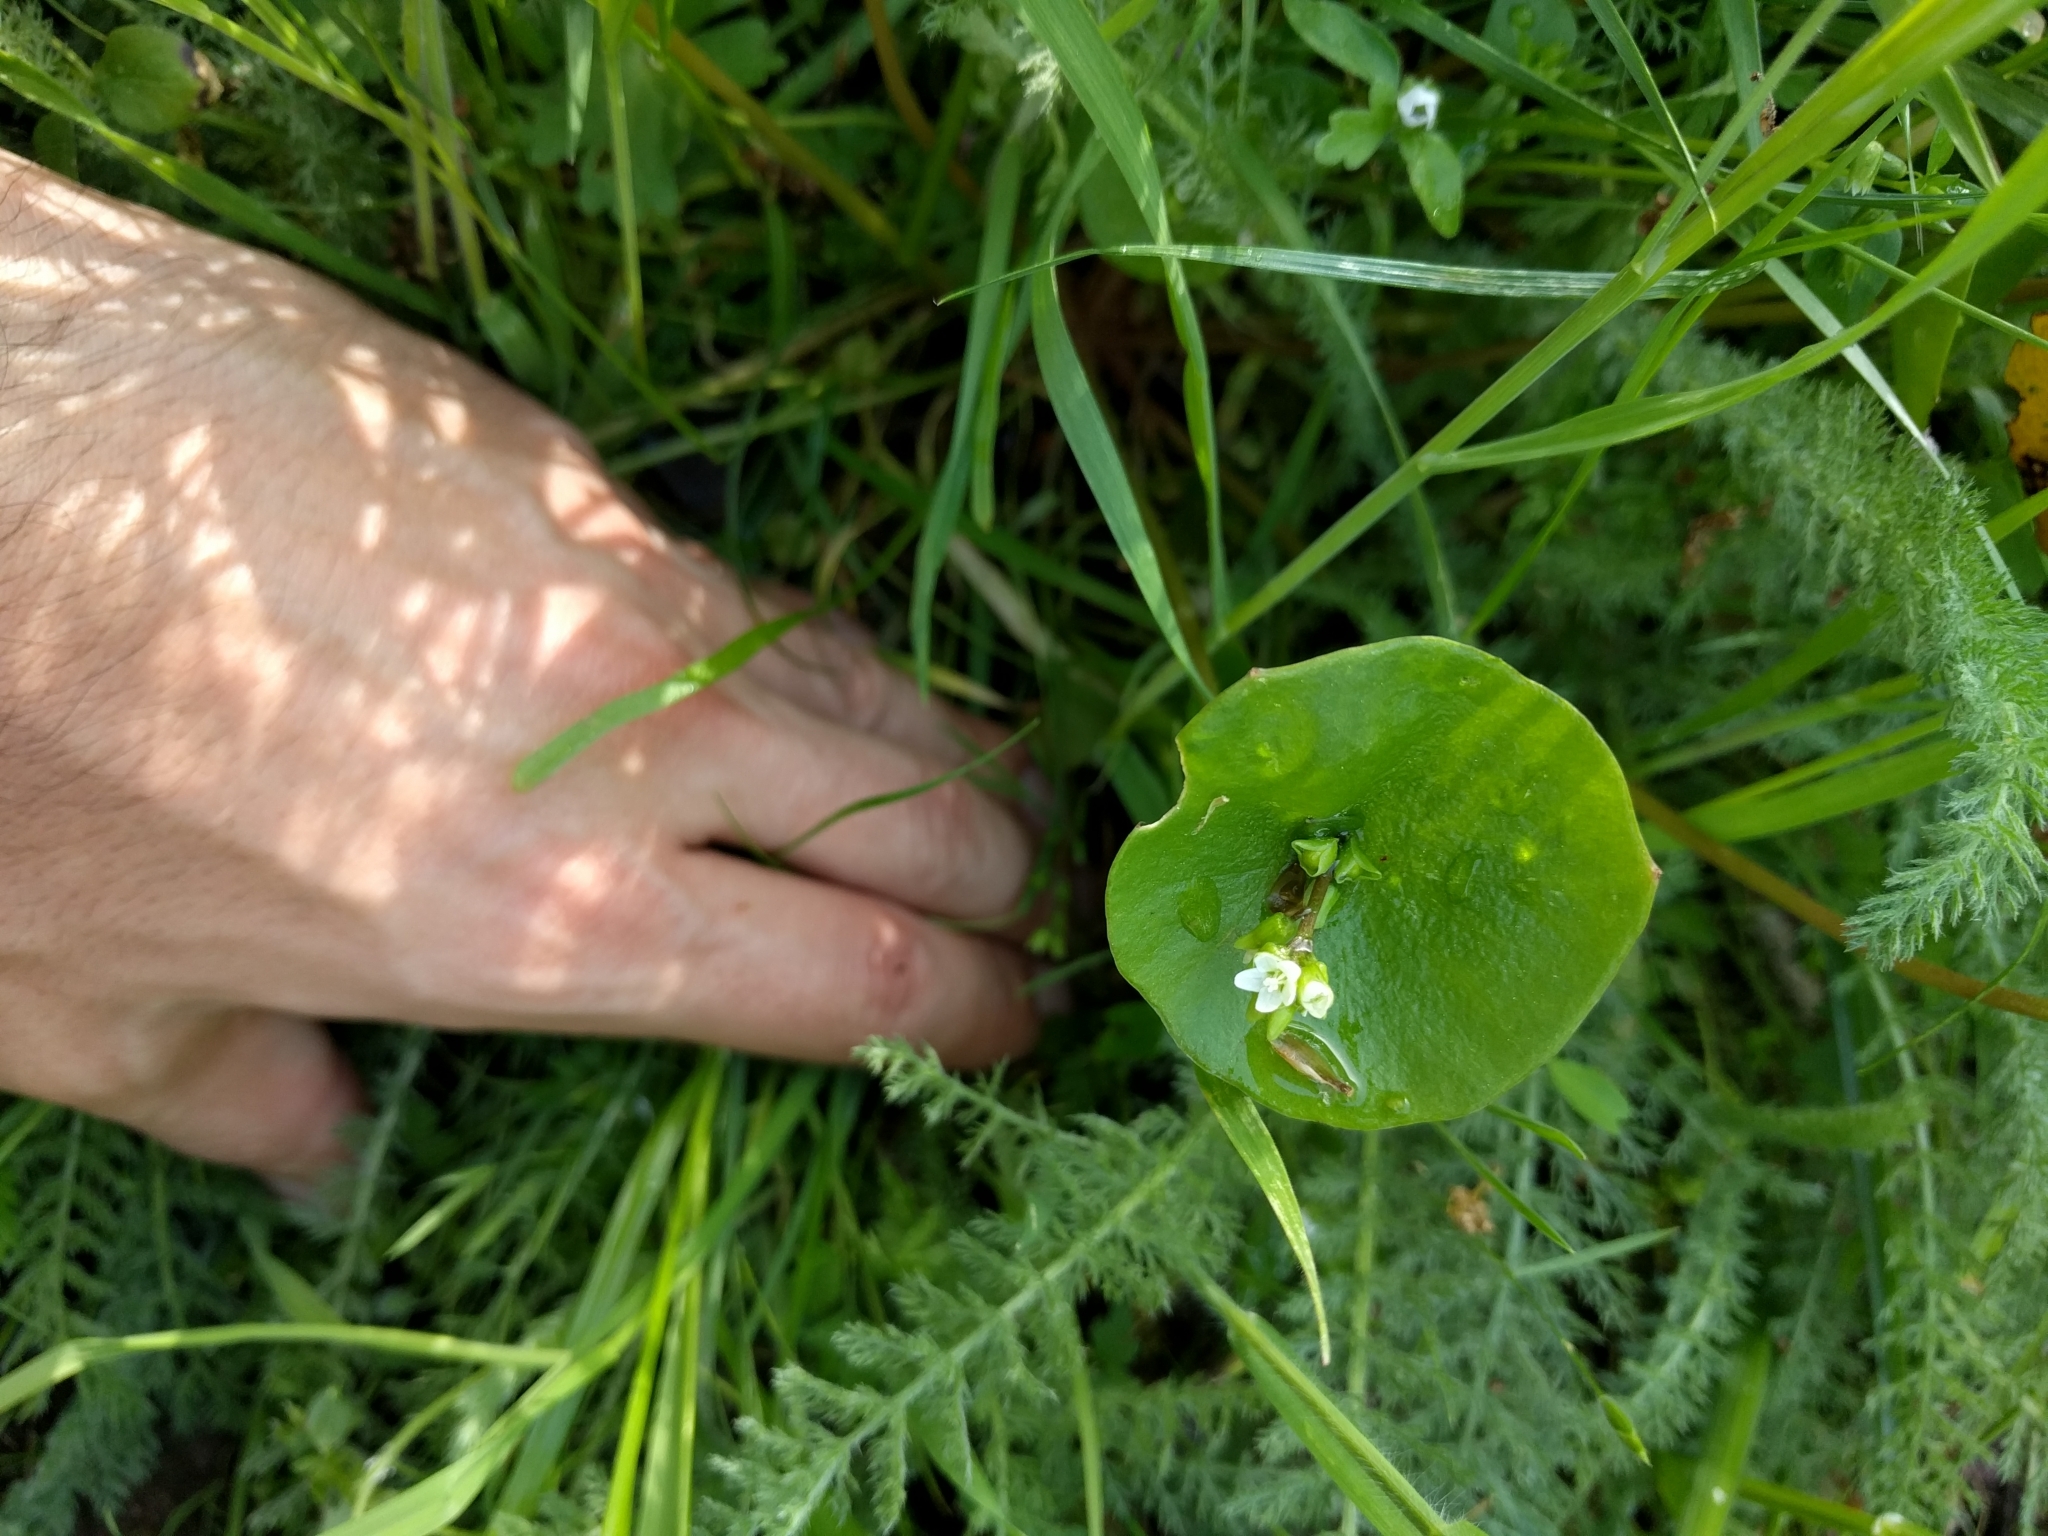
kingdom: Plantae
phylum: Tracheophyta
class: Magnoliopsida
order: Caryophyllales
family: Montiaceae
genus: Claytonia
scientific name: Claytonia parviflora
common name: Indian-lettuce
